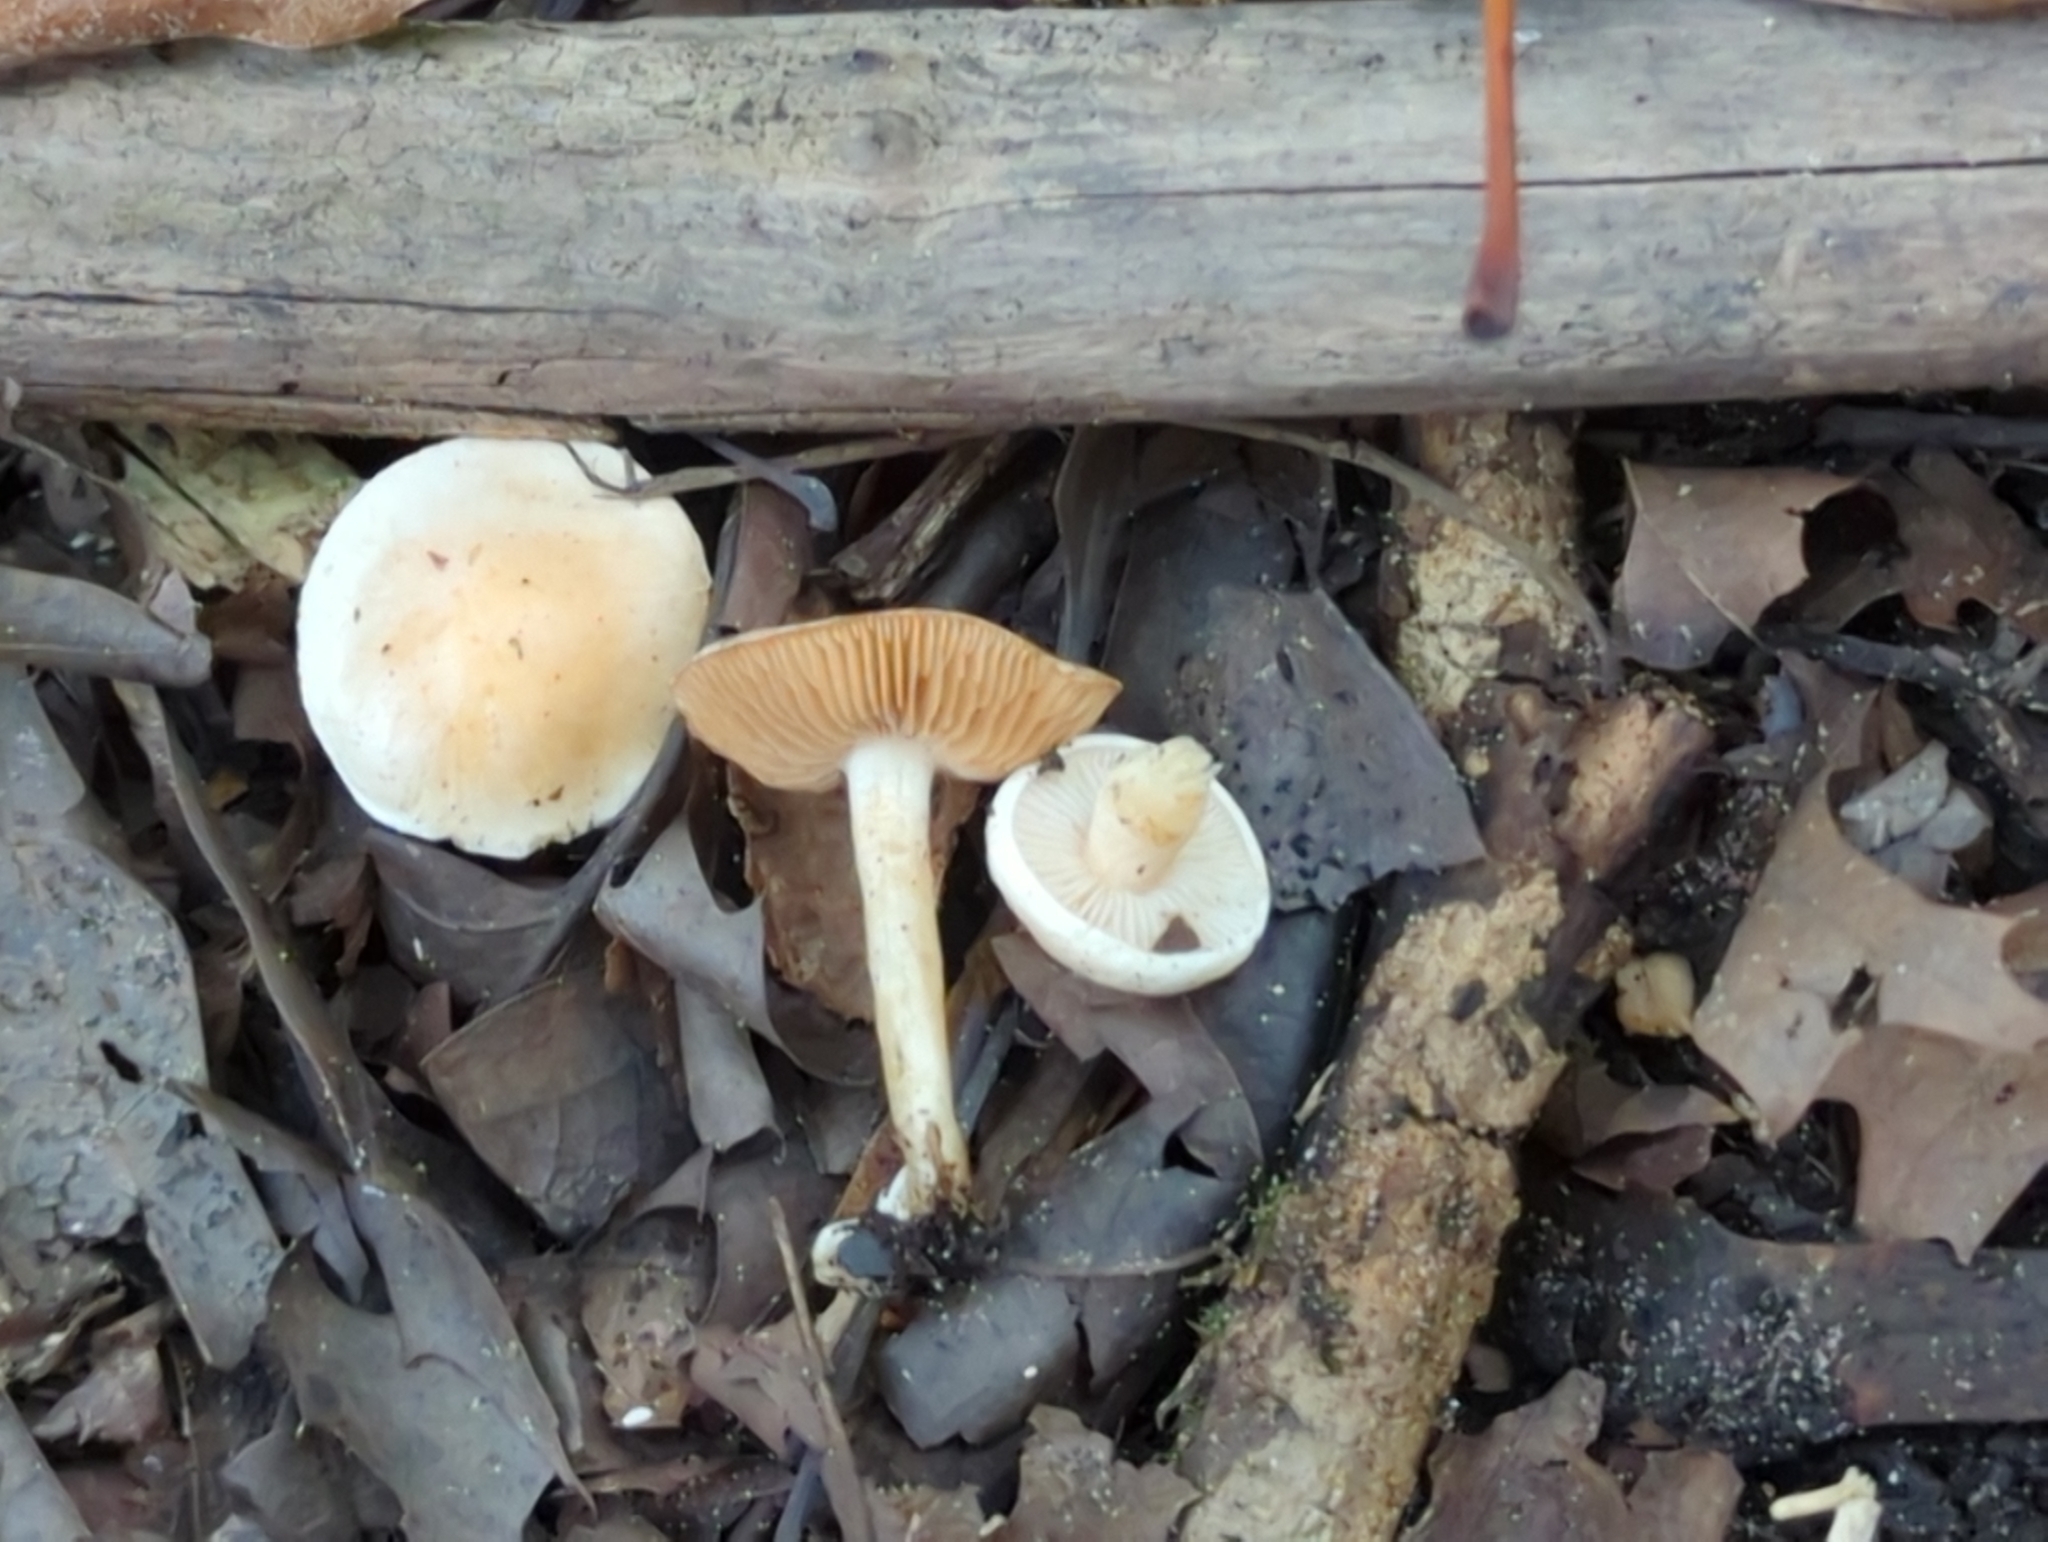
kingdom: Fungi
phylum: Basidiomycota
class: Agaricomycetes
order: Agaricales
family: Hymenogastraceae
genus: Hebeloma
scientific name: Hebeloma hiemale
